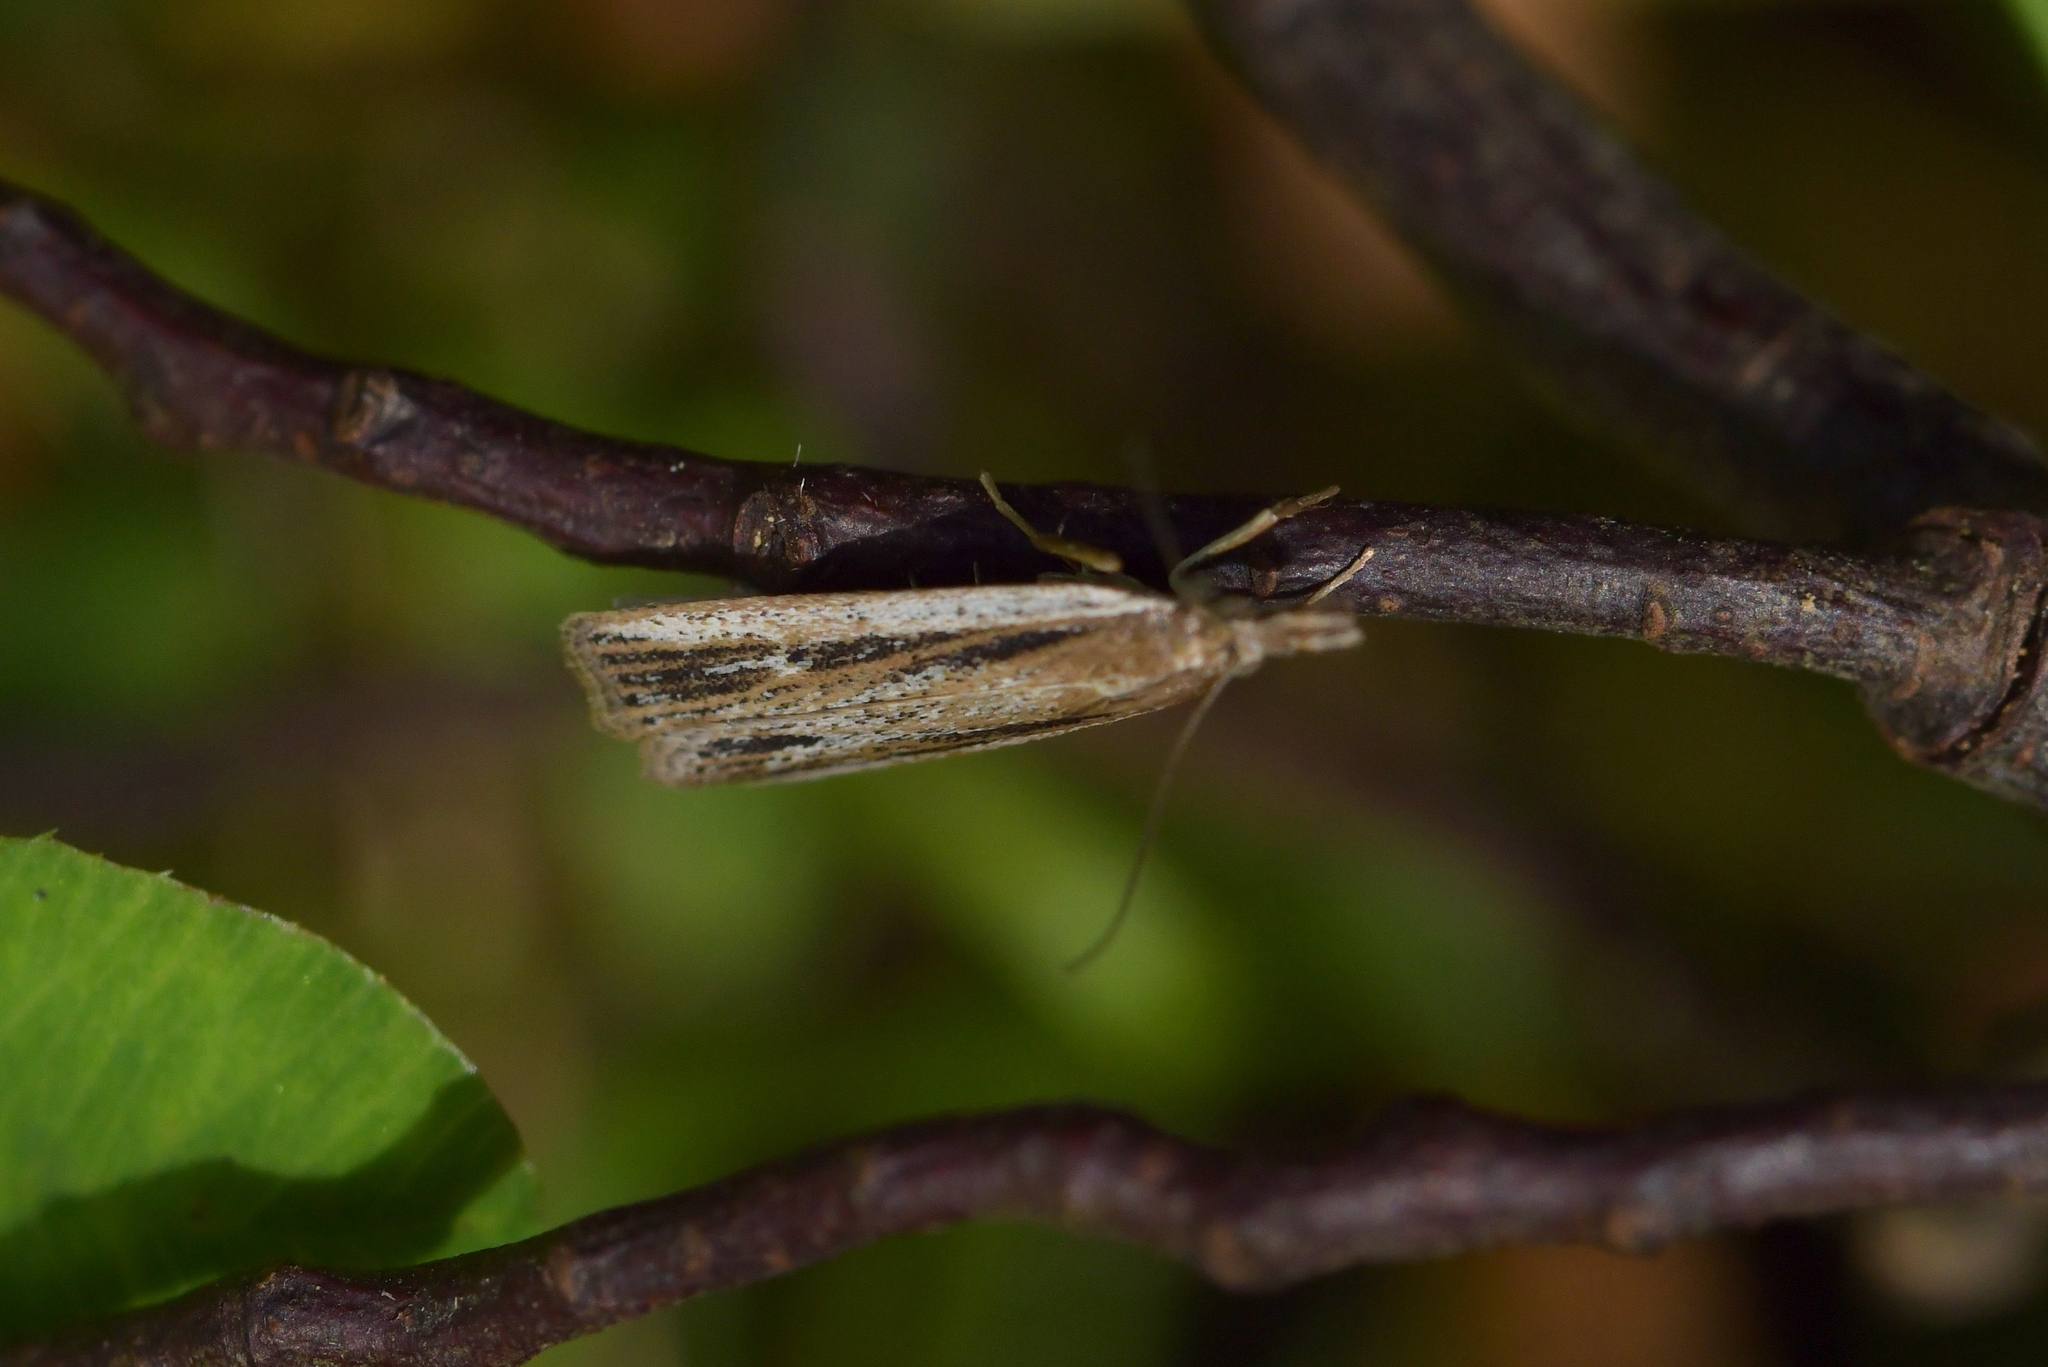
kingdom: Animalia
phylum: Arthropoda
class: Insecta
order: Lepidoptera
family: Crambidae
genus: Eudonia
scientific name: Eudonia sabulosella
